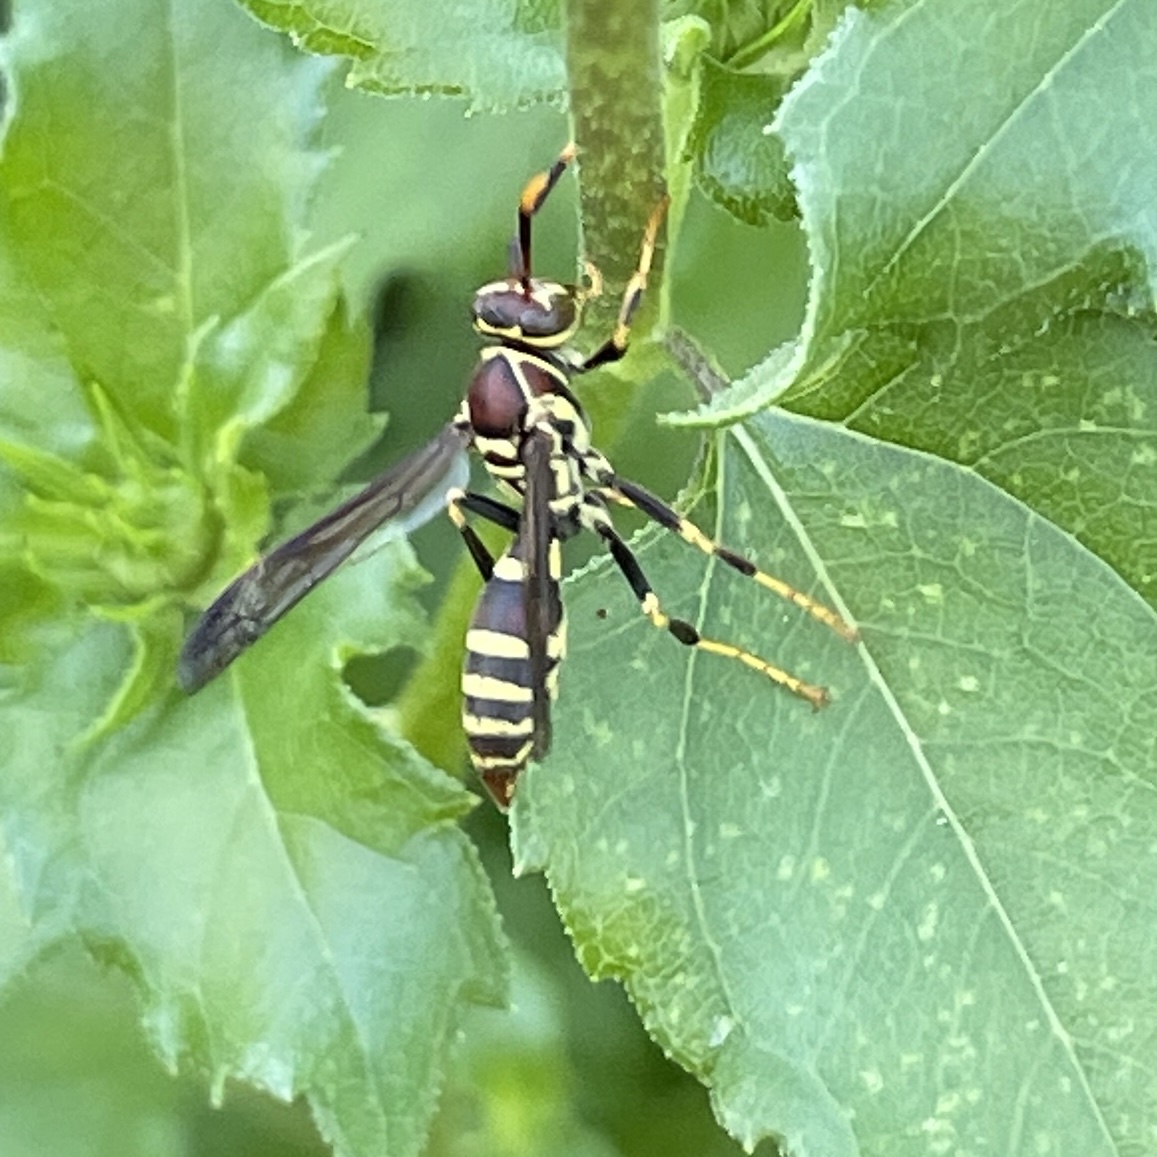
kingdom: Animalia
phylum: Arthropoda
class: Insecta
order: Hymenoptera
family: Eumenidae
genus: Polistes
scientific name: Polistes exclamans
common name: Paper wasp
